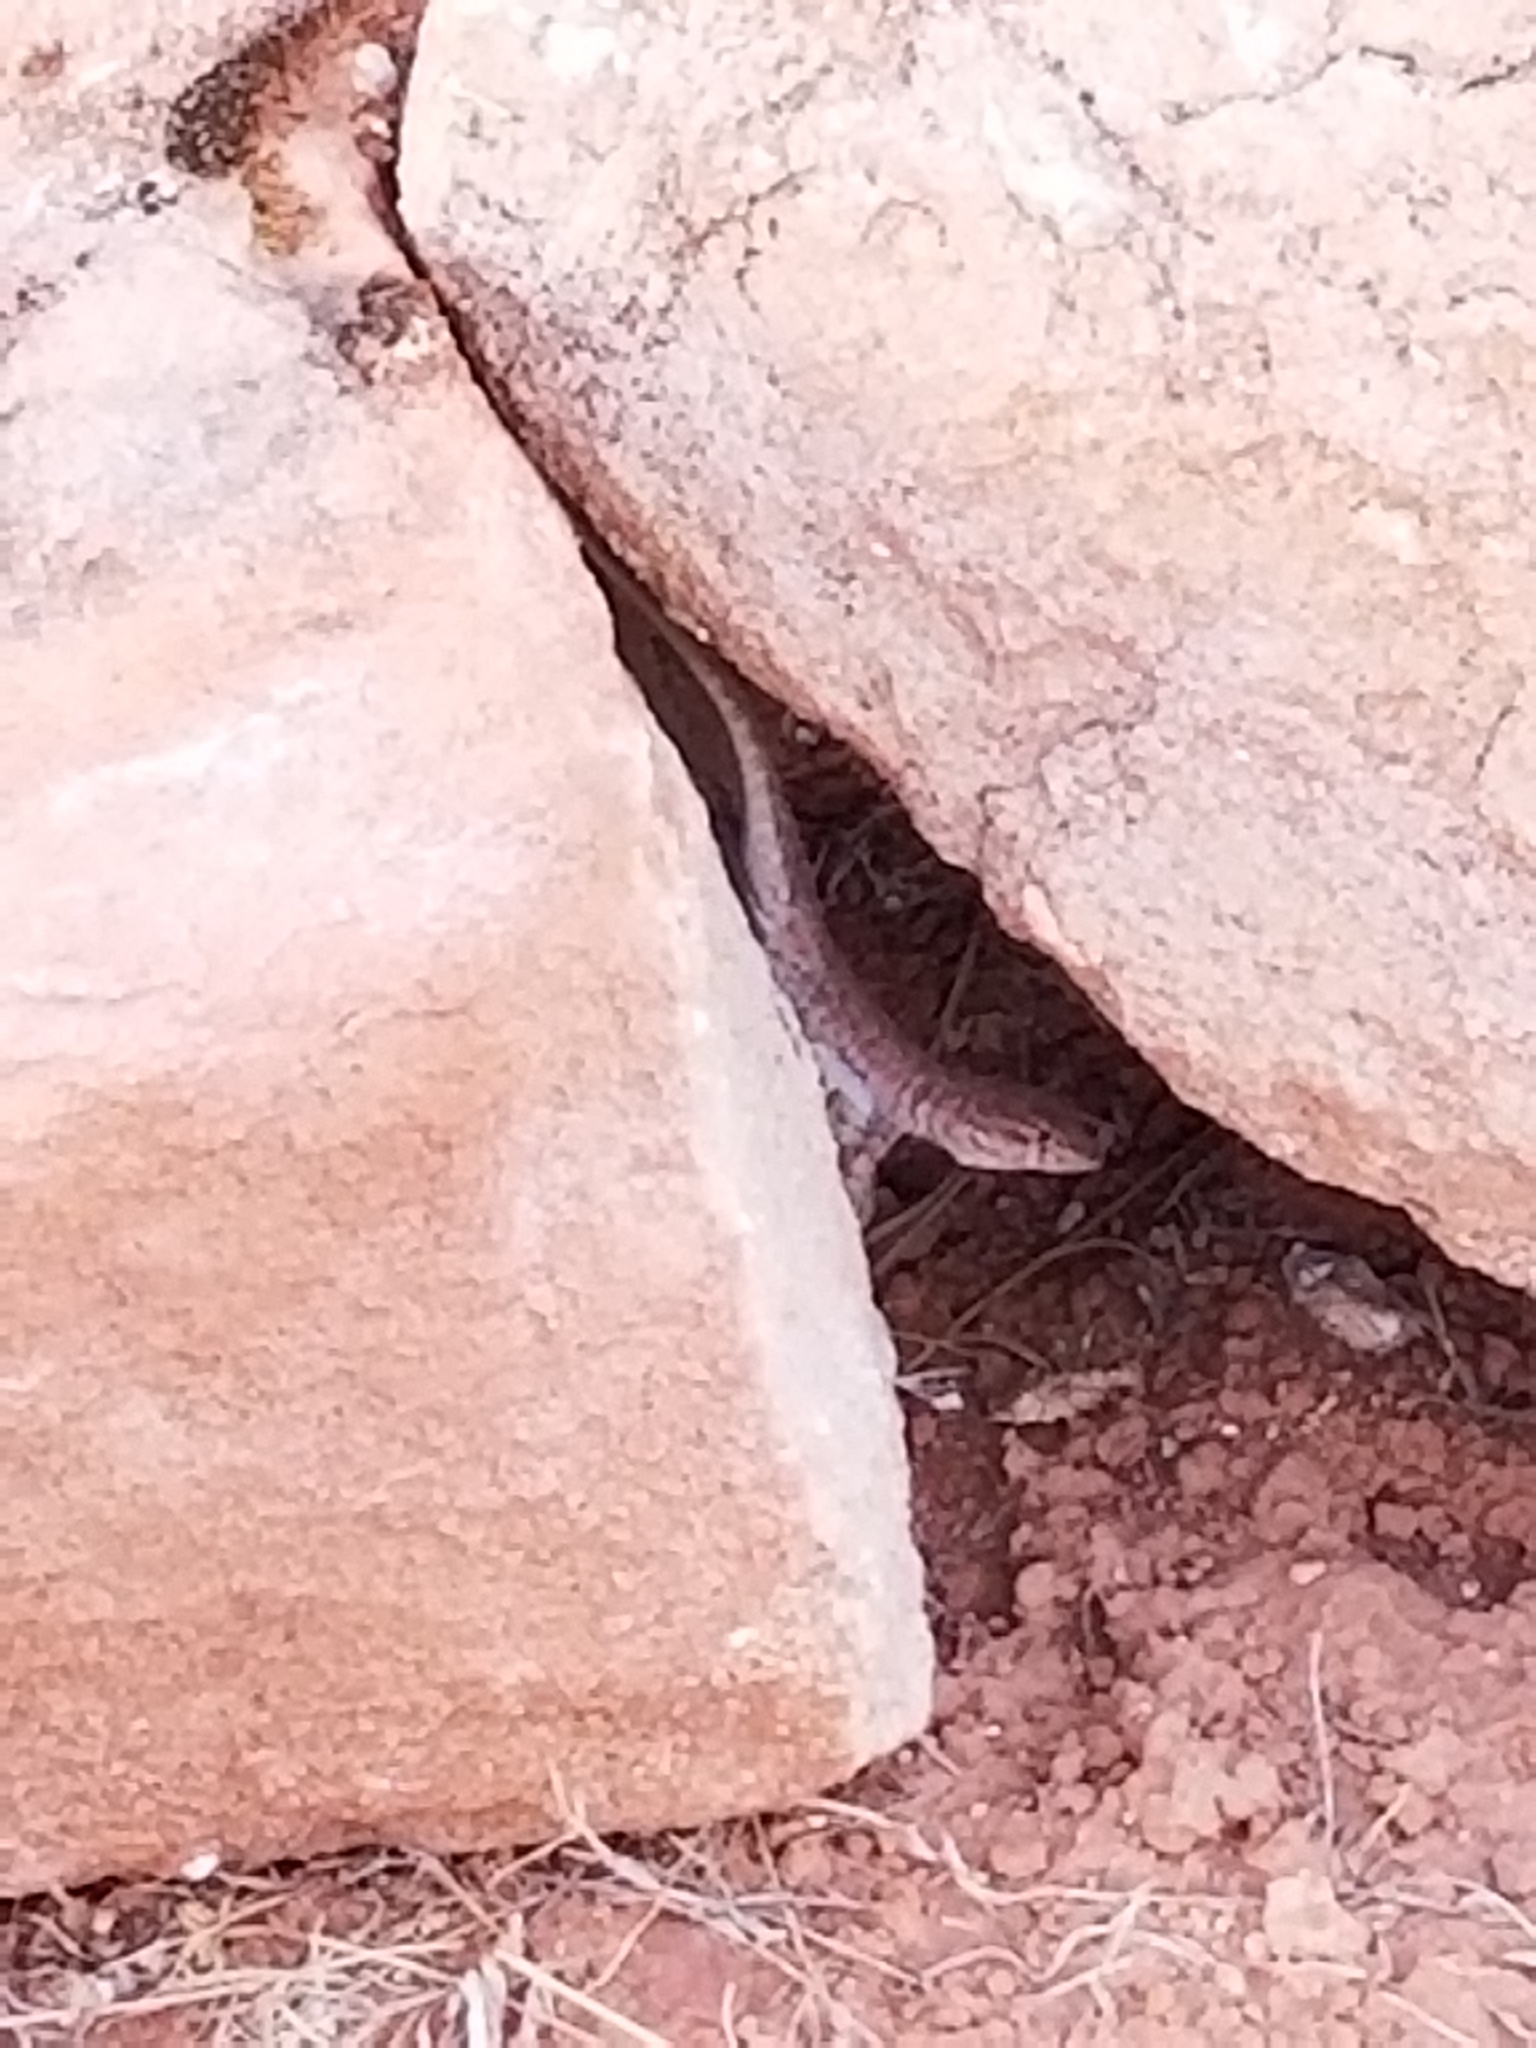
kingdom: Animalia
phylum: Chordata
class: Squamata
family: Phrynosomatidae
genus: Uta
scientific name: Uta stansburiana
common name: Side-blotched lizard
